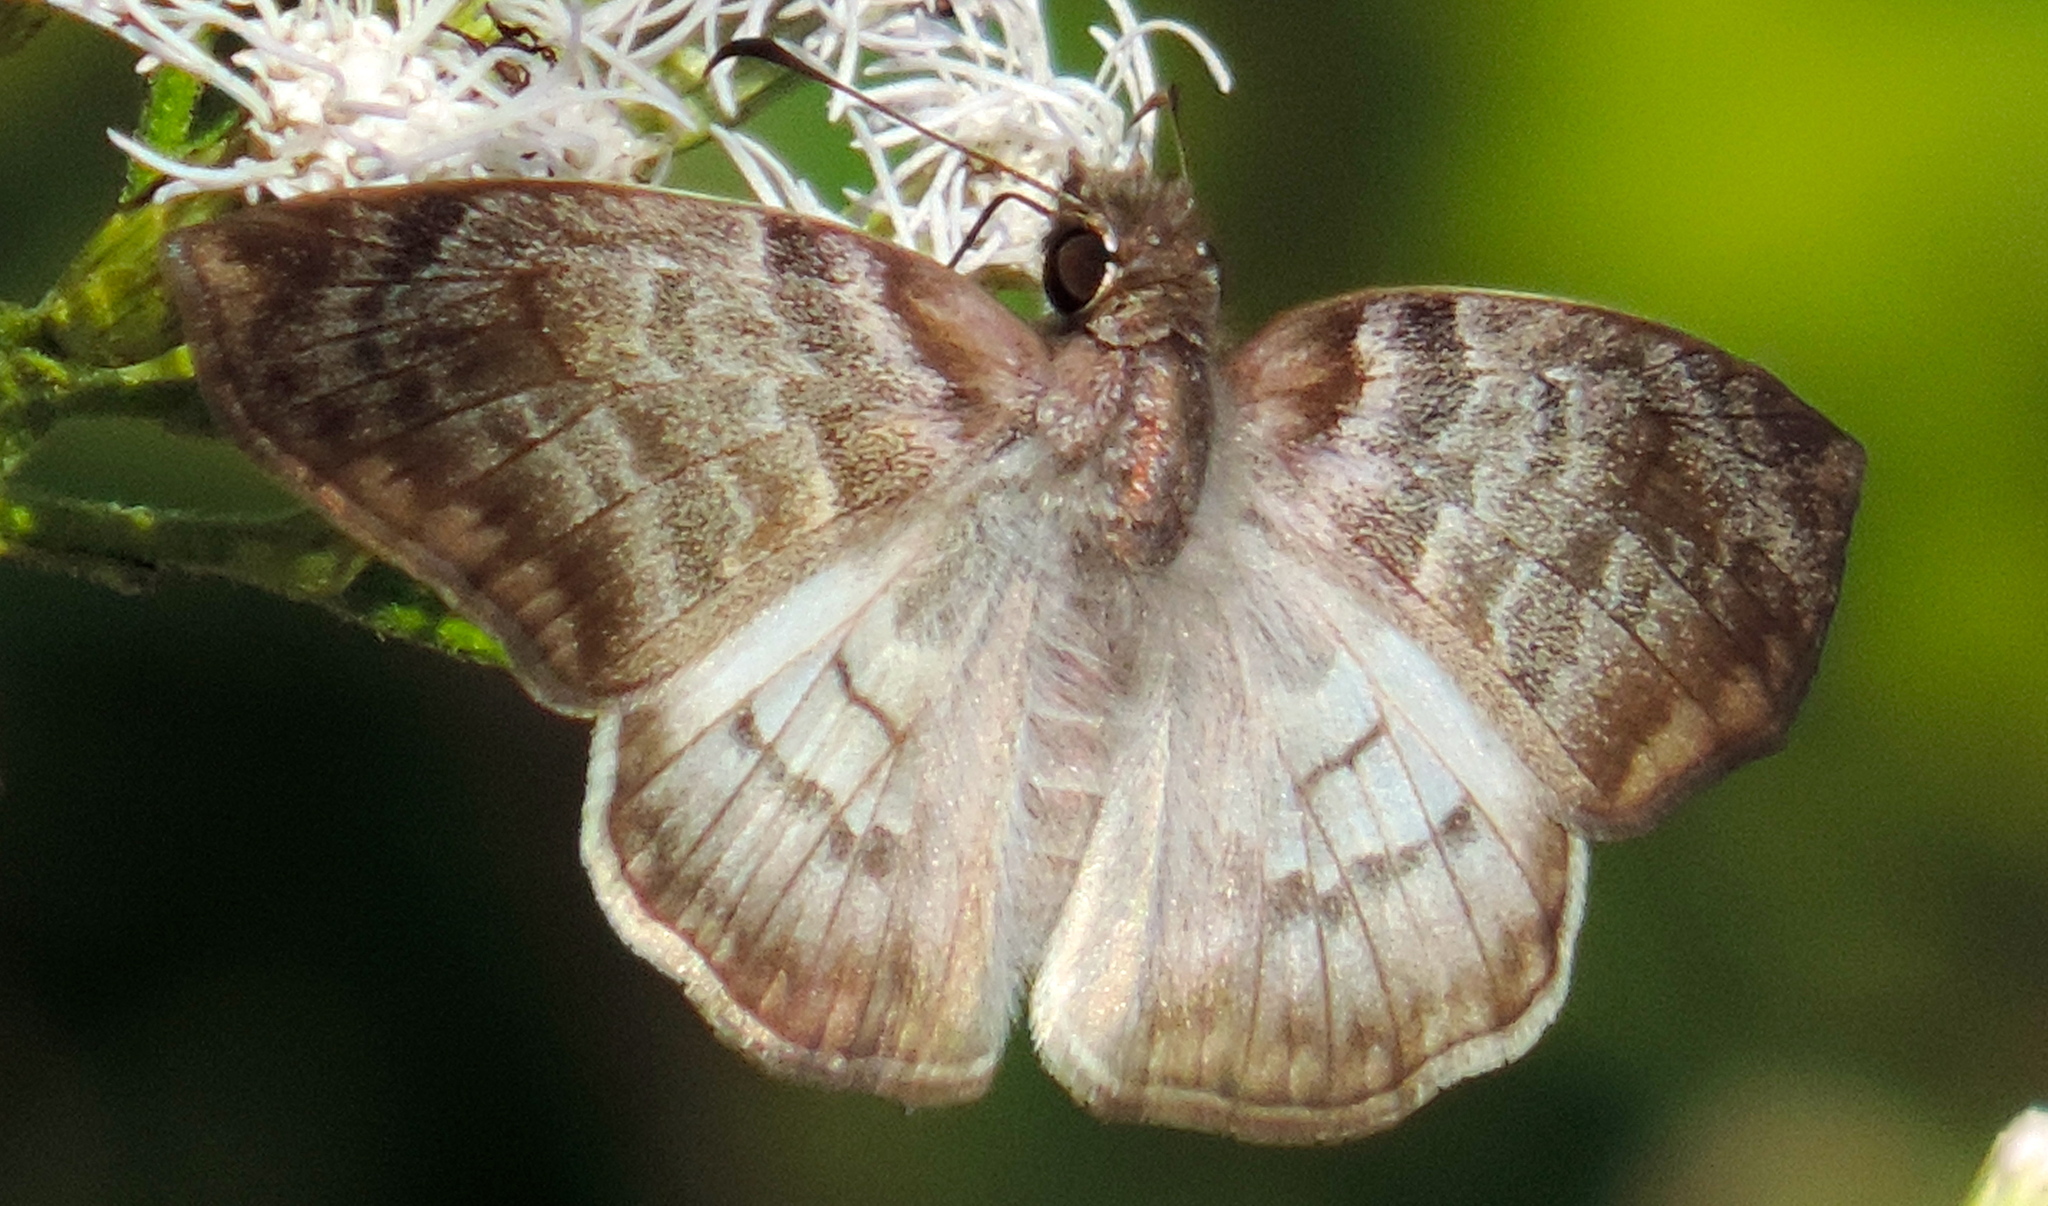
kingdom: Animalia
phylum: Arthropoda
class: Insecta
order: Lepidoptera
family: Hesperiidae
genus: Mylon
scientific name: Mylon pelopidas
